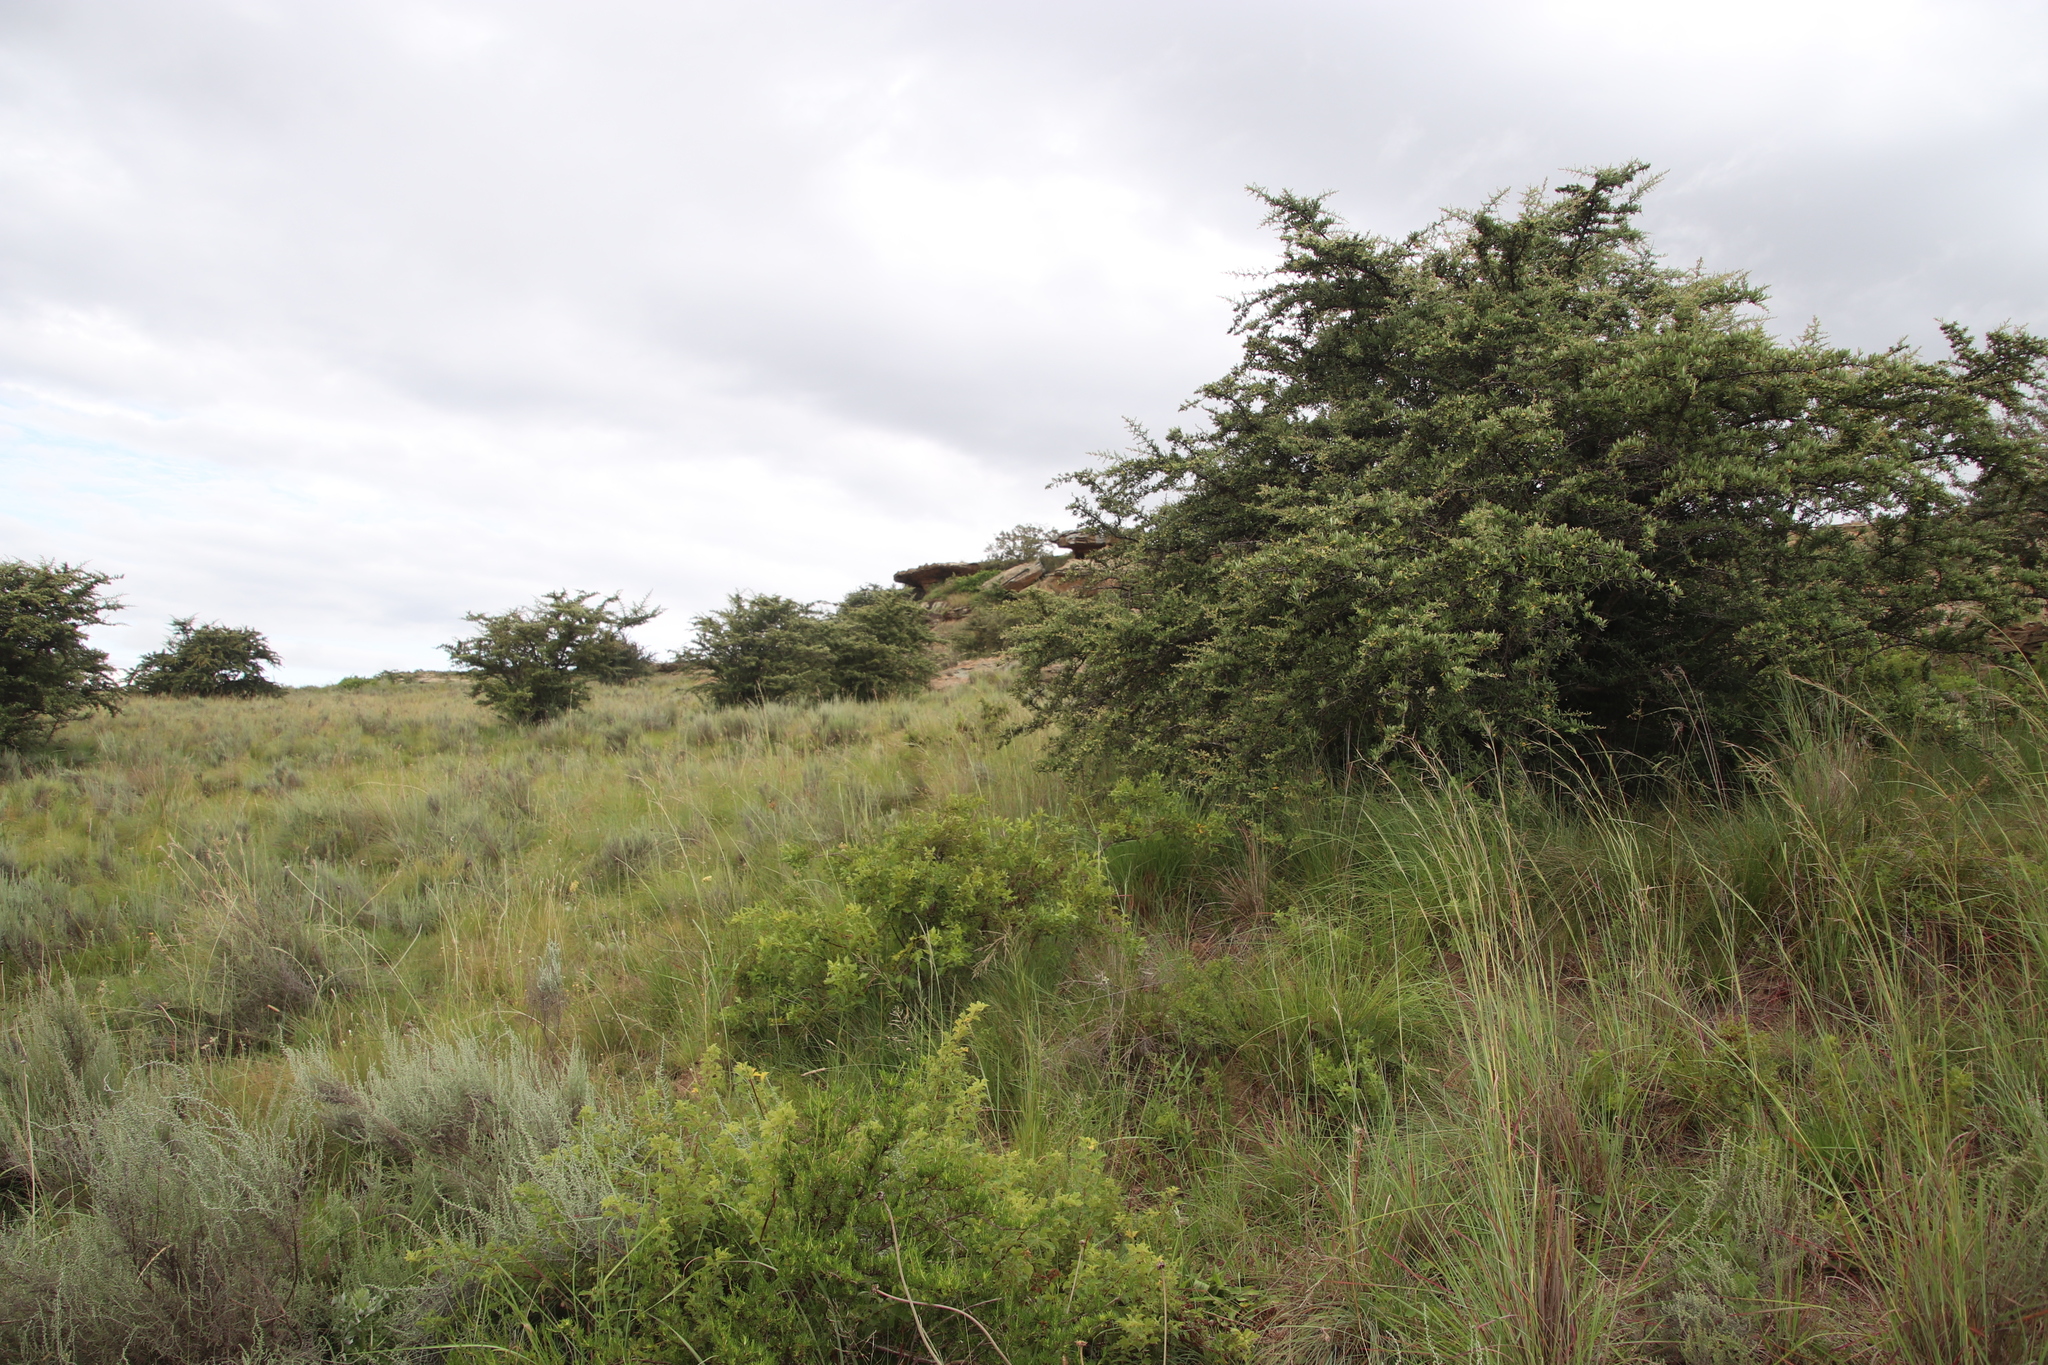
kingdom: Plantae
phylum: Tracheophyta
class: Magnoliopsida
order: Rosales
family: Rosaceae
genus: Pyracantha
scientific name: Pyracantha angustifolia
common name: Narrowleaf firethorn
